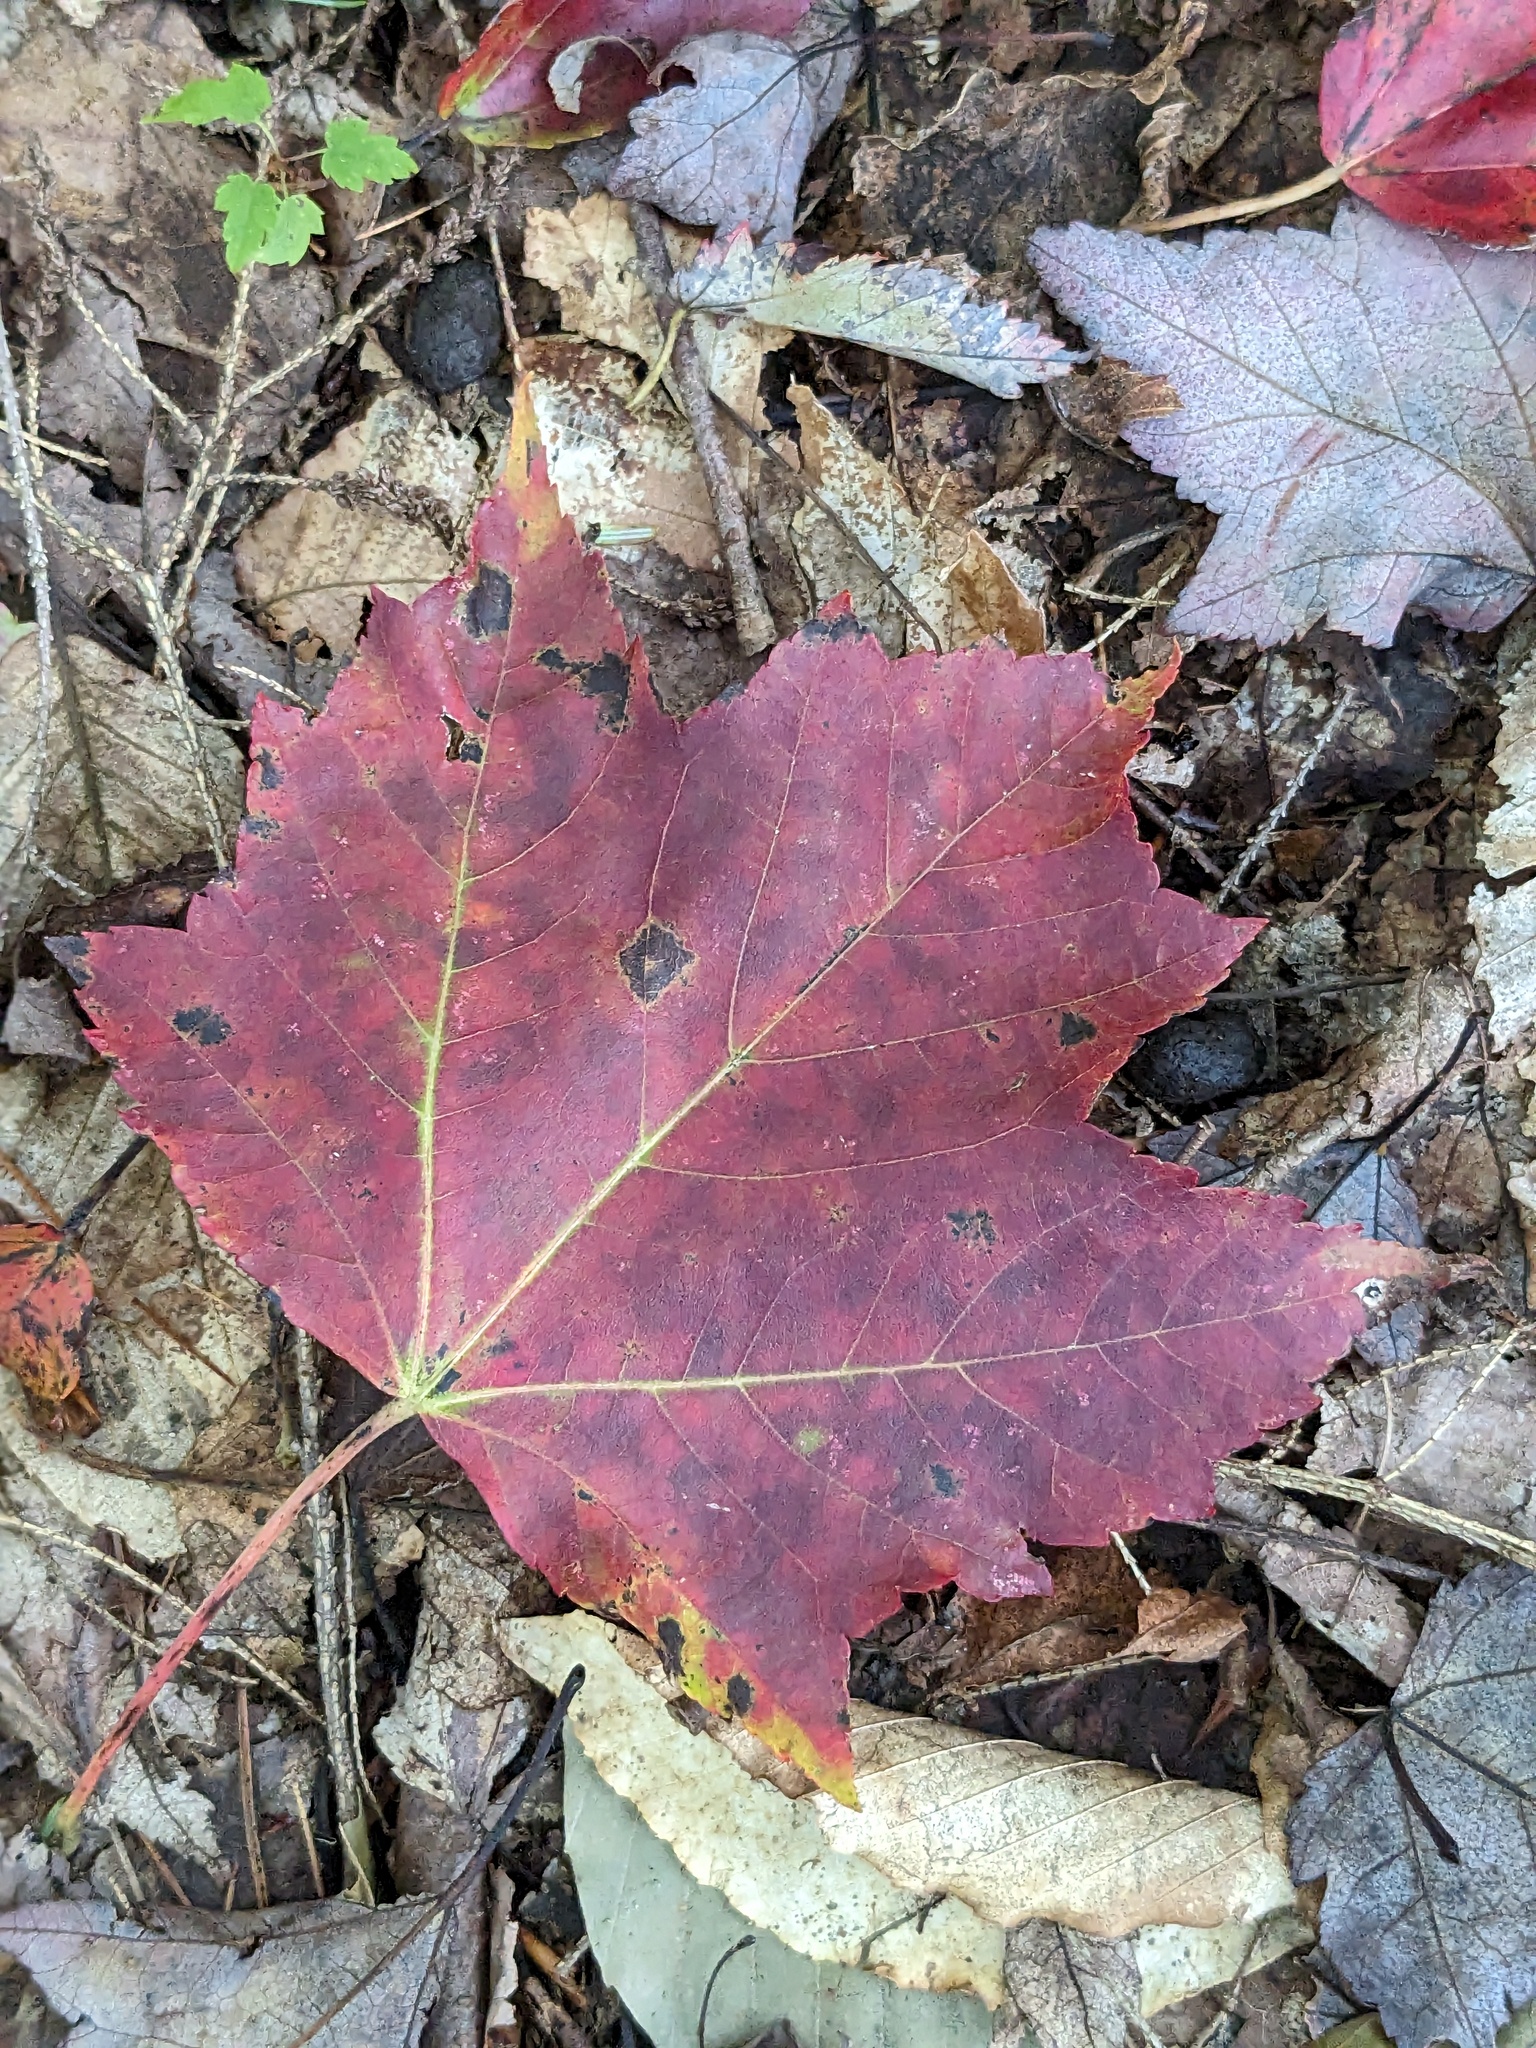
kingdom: Plantae
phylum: Tracheophyta
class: Magnoliopsida
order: Sapindales
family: Sapindaceae
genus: Acer
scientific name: Acer rubrum
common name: Red maple
